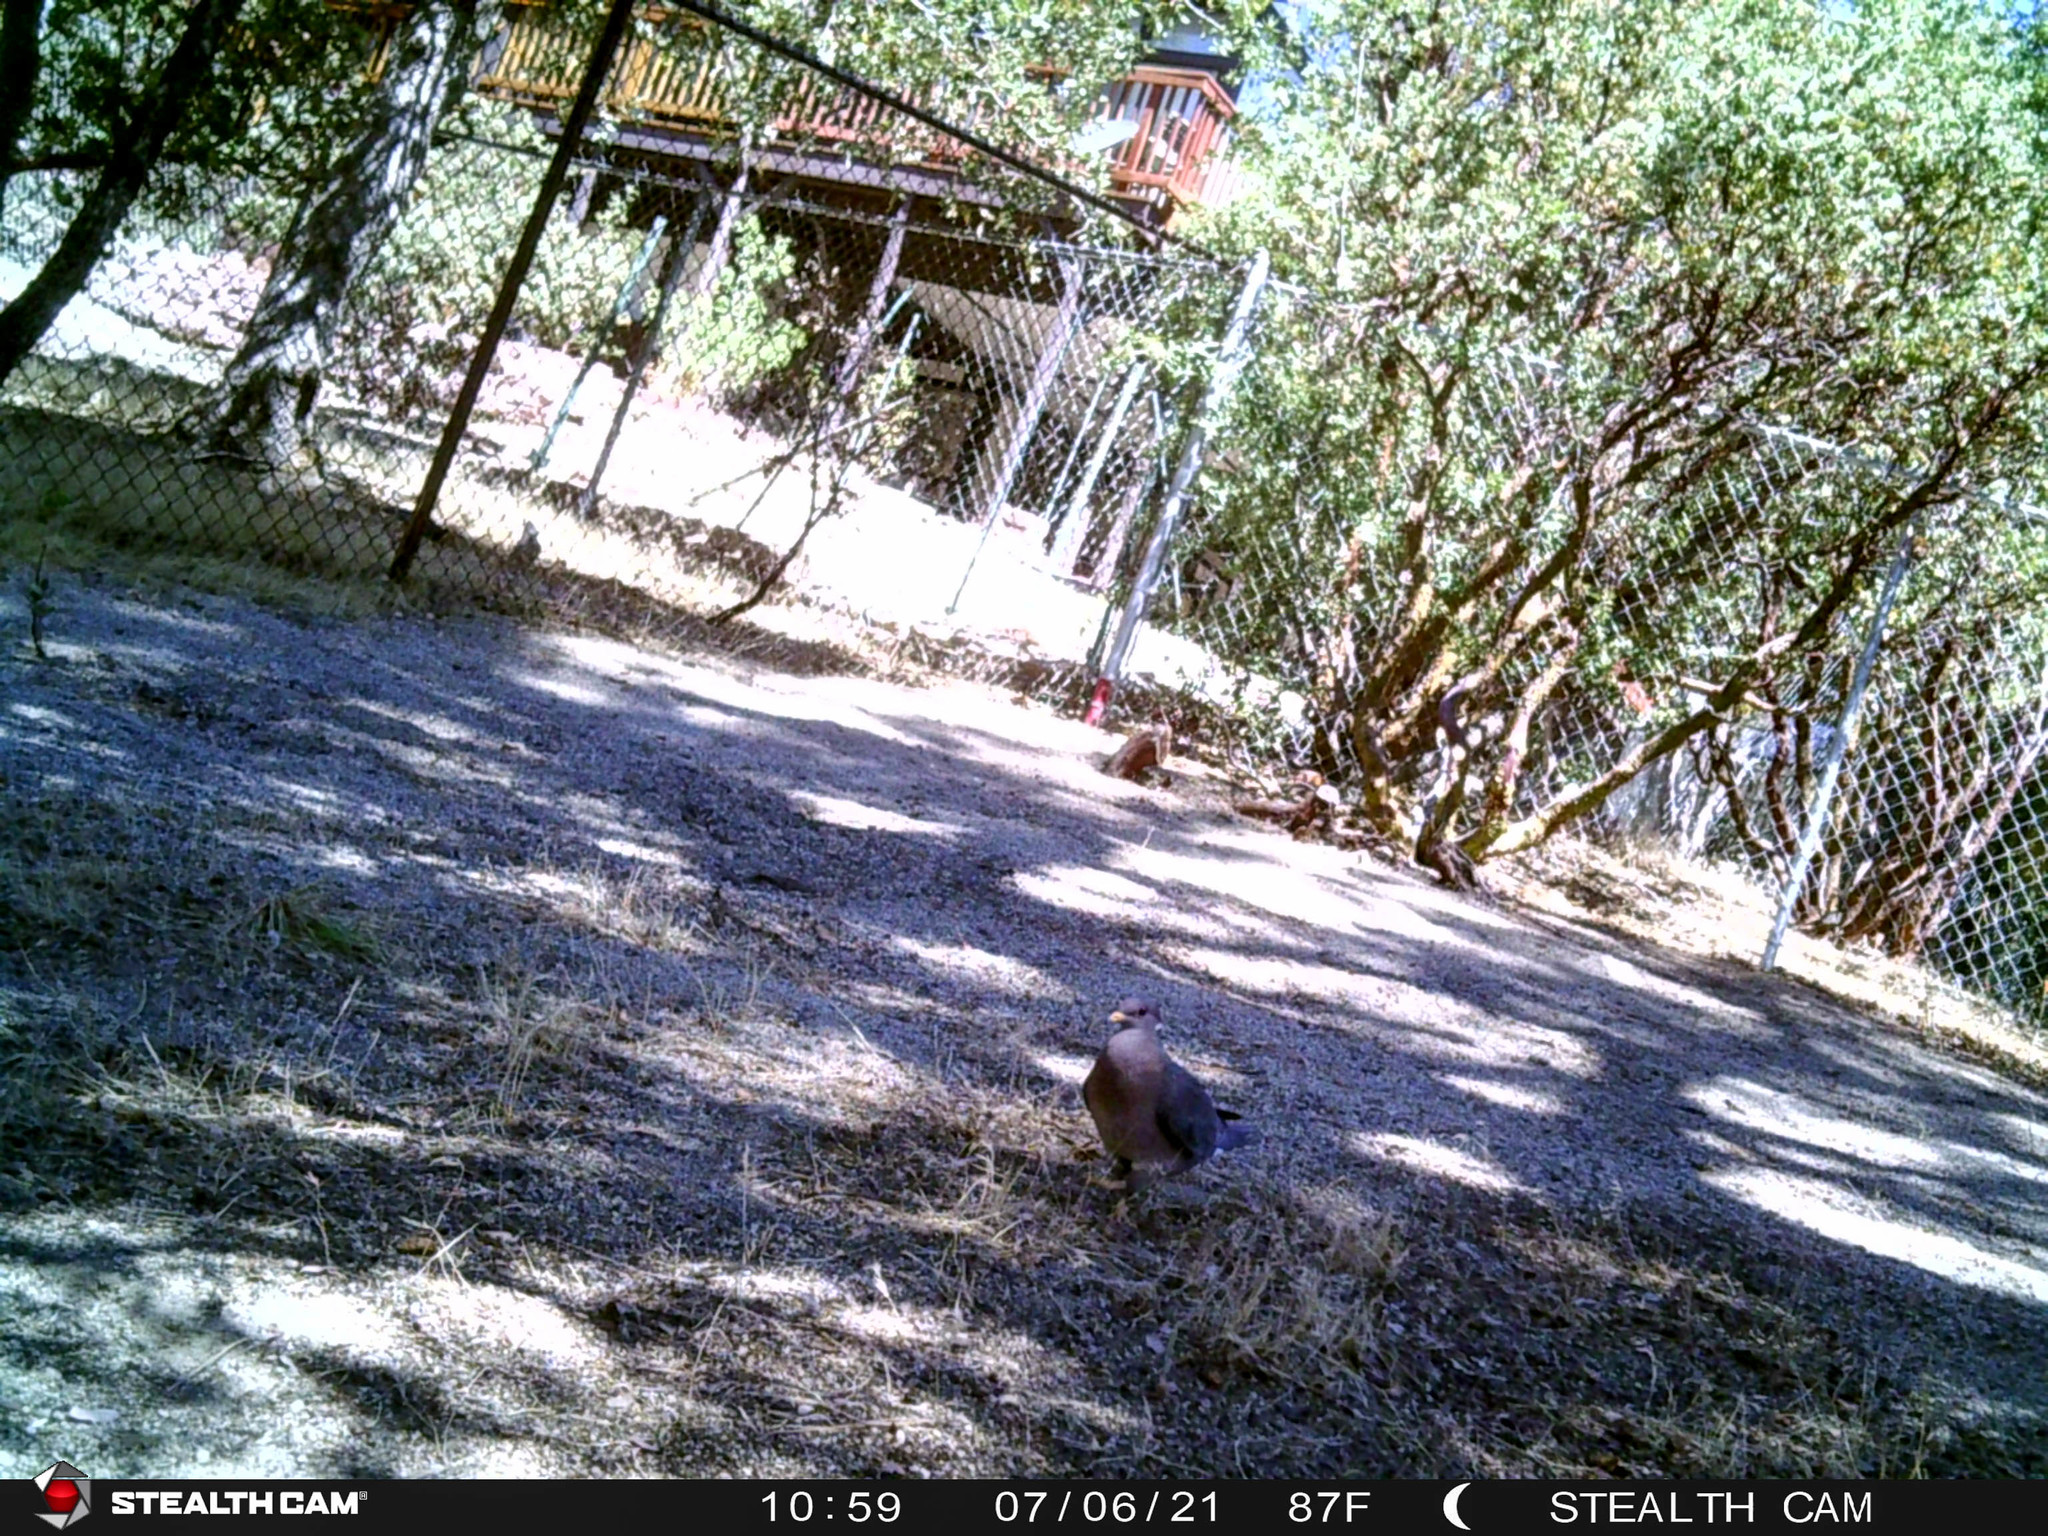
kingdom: Animalia
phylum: Chordata
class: Aves
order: Columbiformes
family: Columbidae
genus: Patagioenas
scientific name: Patagioenas fasciata
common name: Band-tailed pigeon
